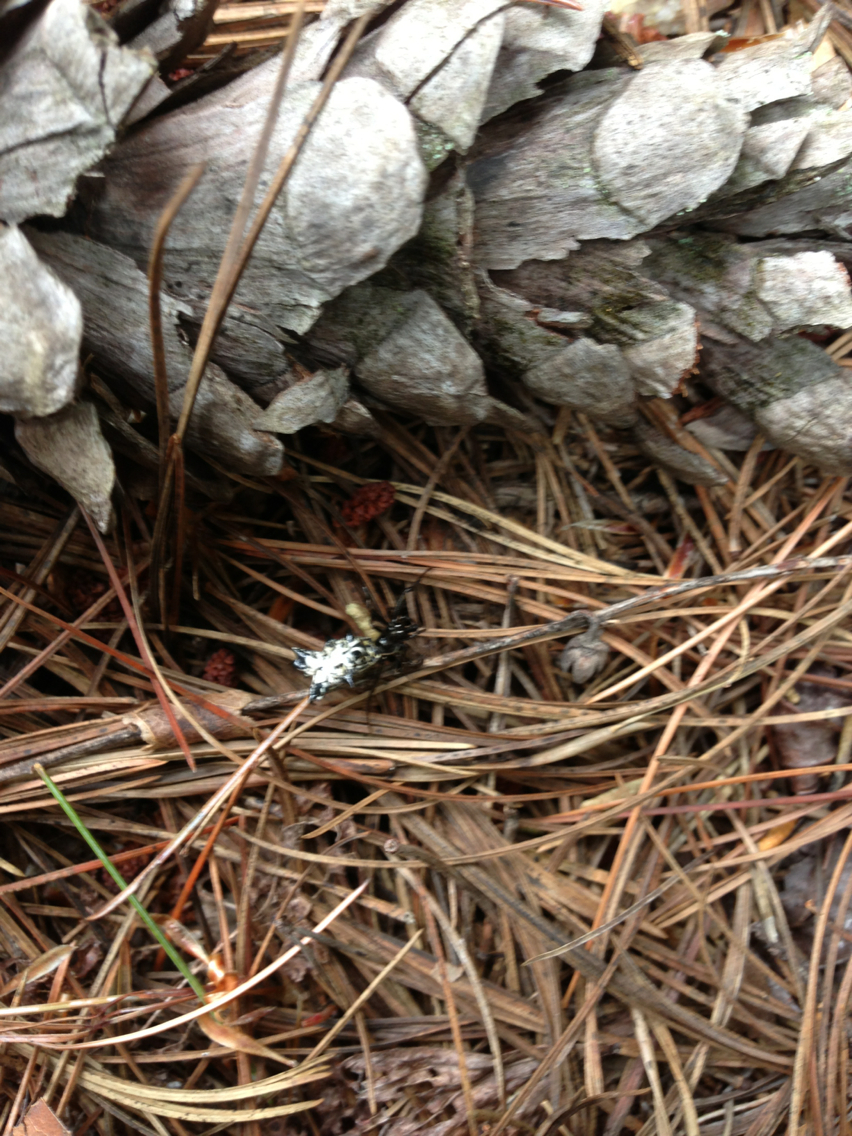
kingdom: Animalia
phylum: Arthropoda
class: Arachnida
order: Araneae
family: Araneidae
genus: Micrathena
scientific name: Micrathena gracilis
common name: Orb weavers
